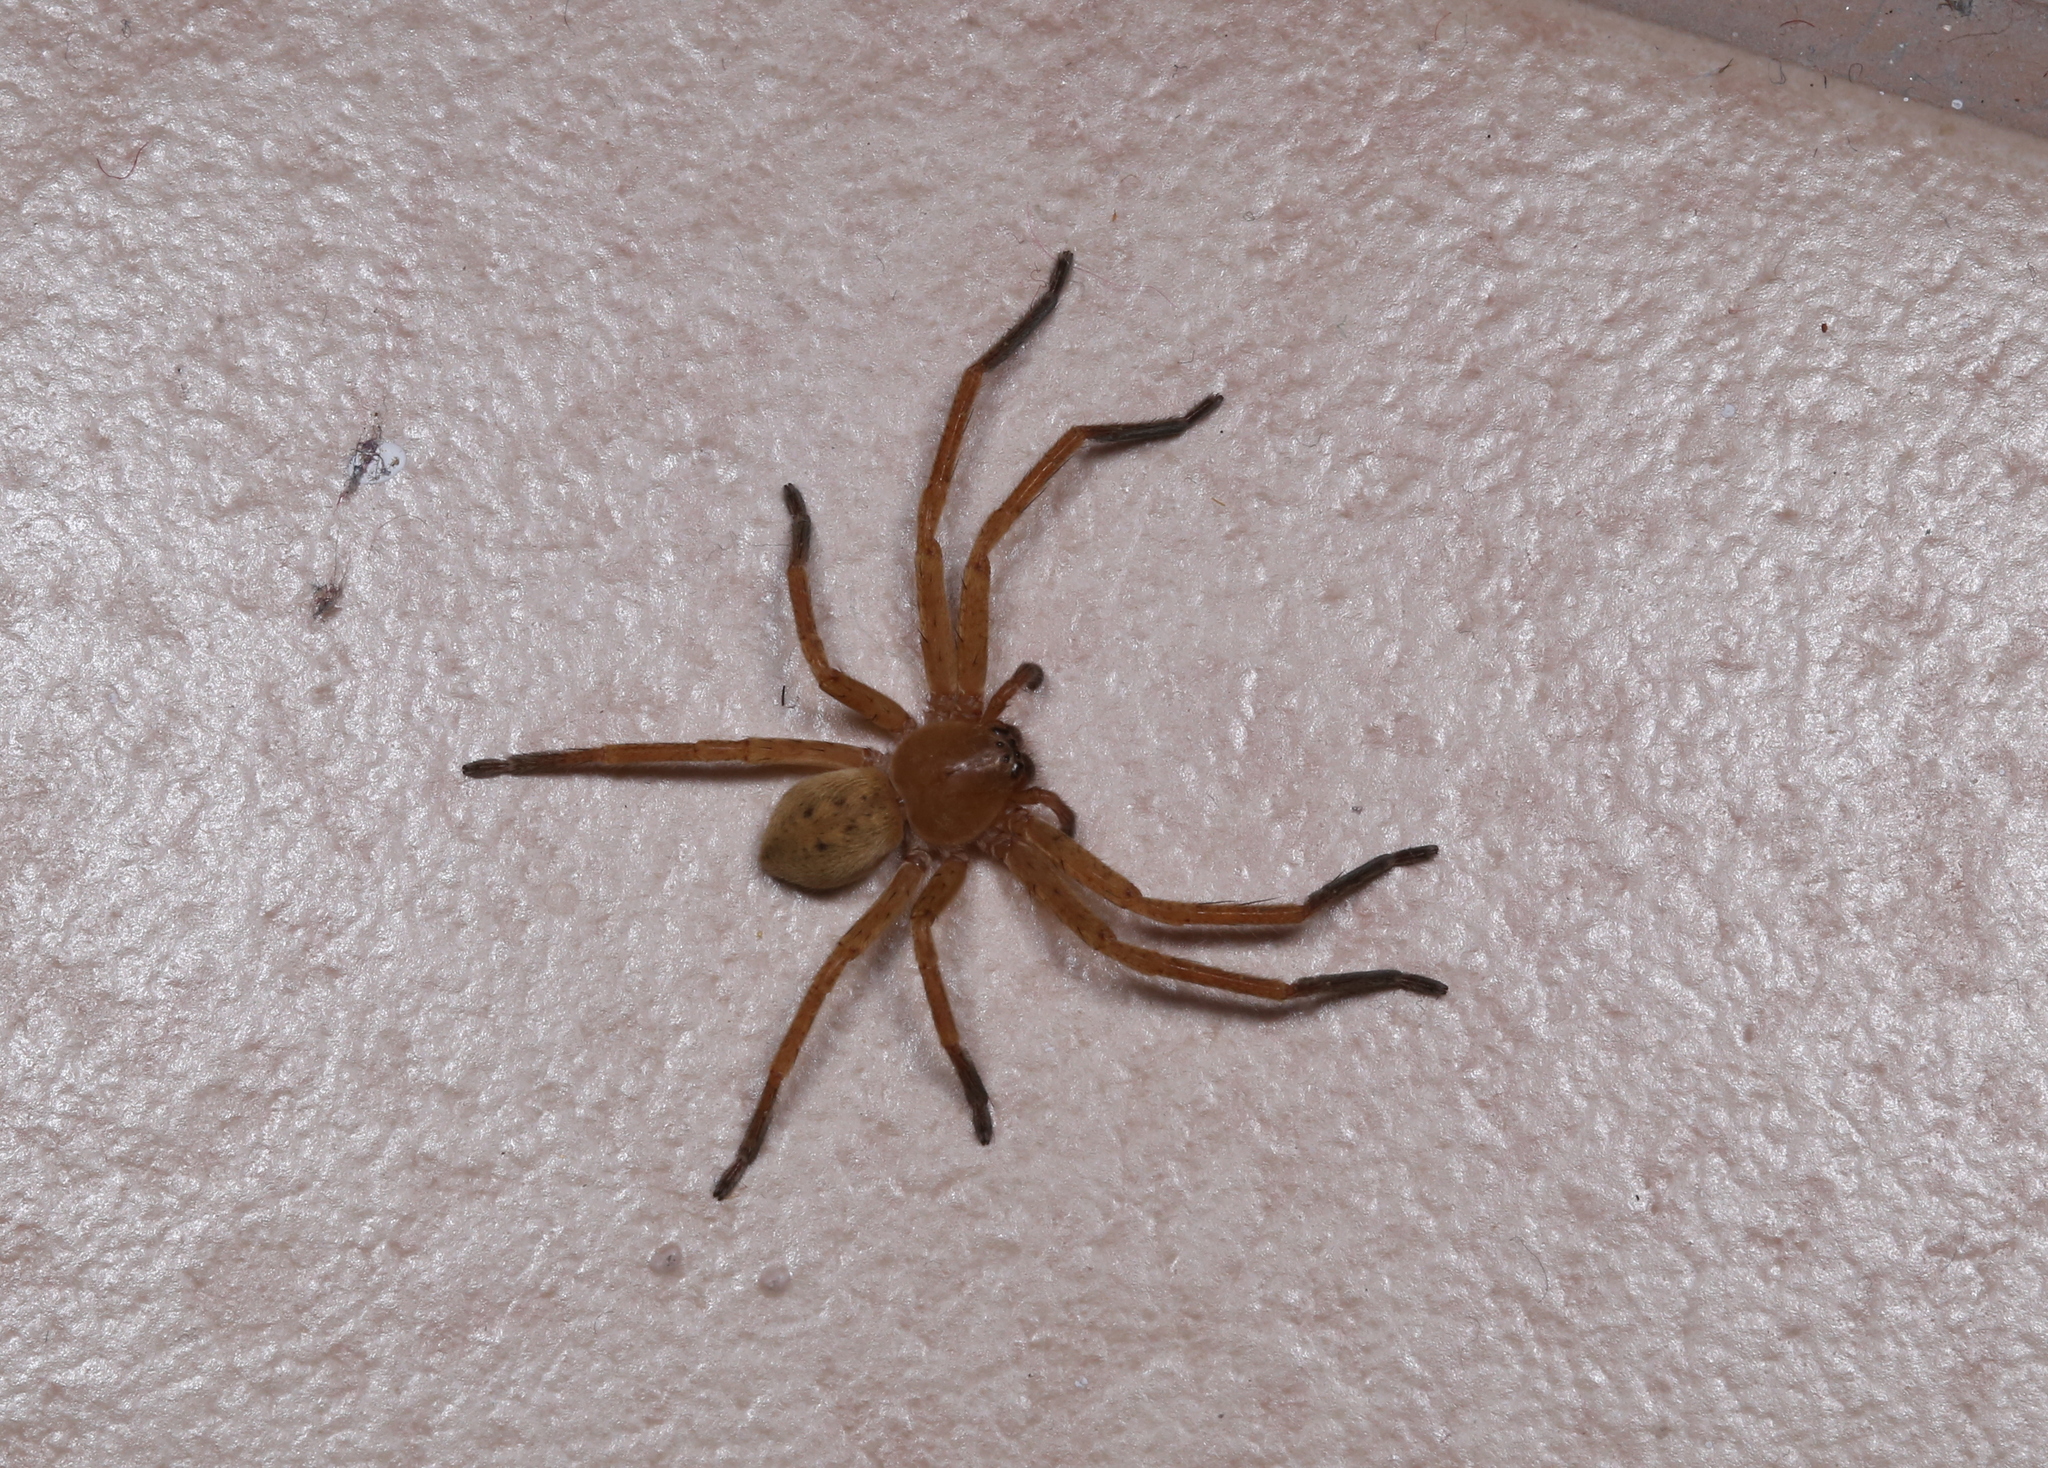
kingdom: Animalia
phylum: Arthropoda
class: Arachnida
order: Araneae
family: Sparassidae
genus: Olios
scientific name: Olios argelasius
